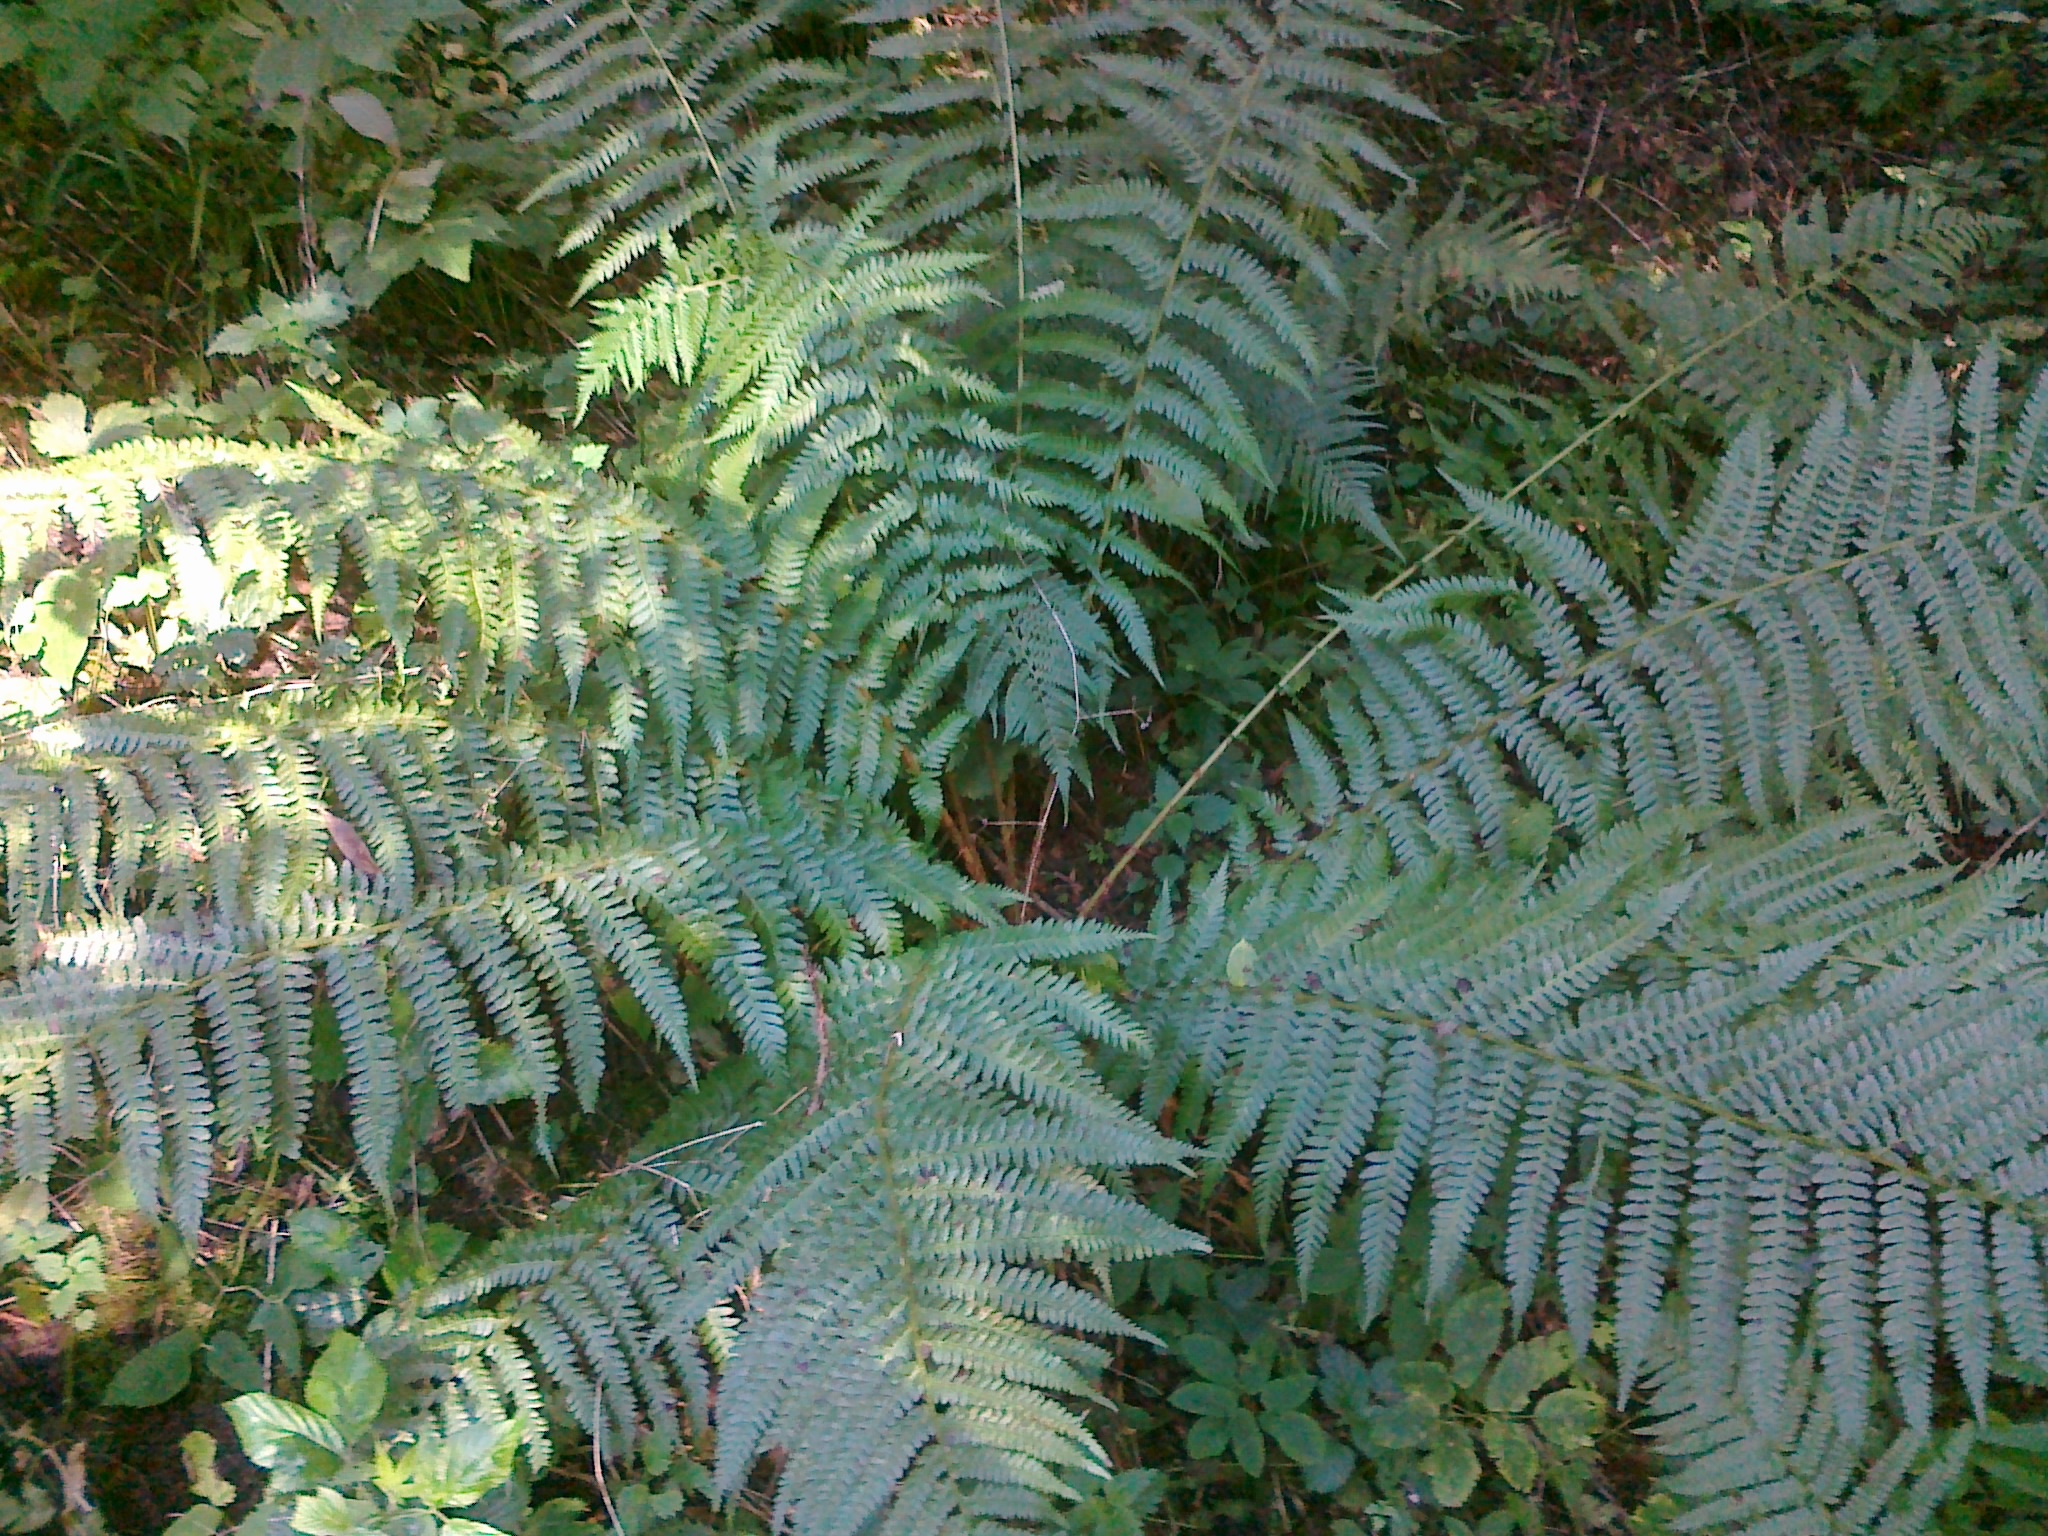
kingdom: Plantae
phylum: Tracheophyta
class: Polypodiopsida
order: Polypodiales
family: Dryopteridaceae
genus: Dryopteris
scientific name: Dryopteris filix-mas
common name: Male fern
